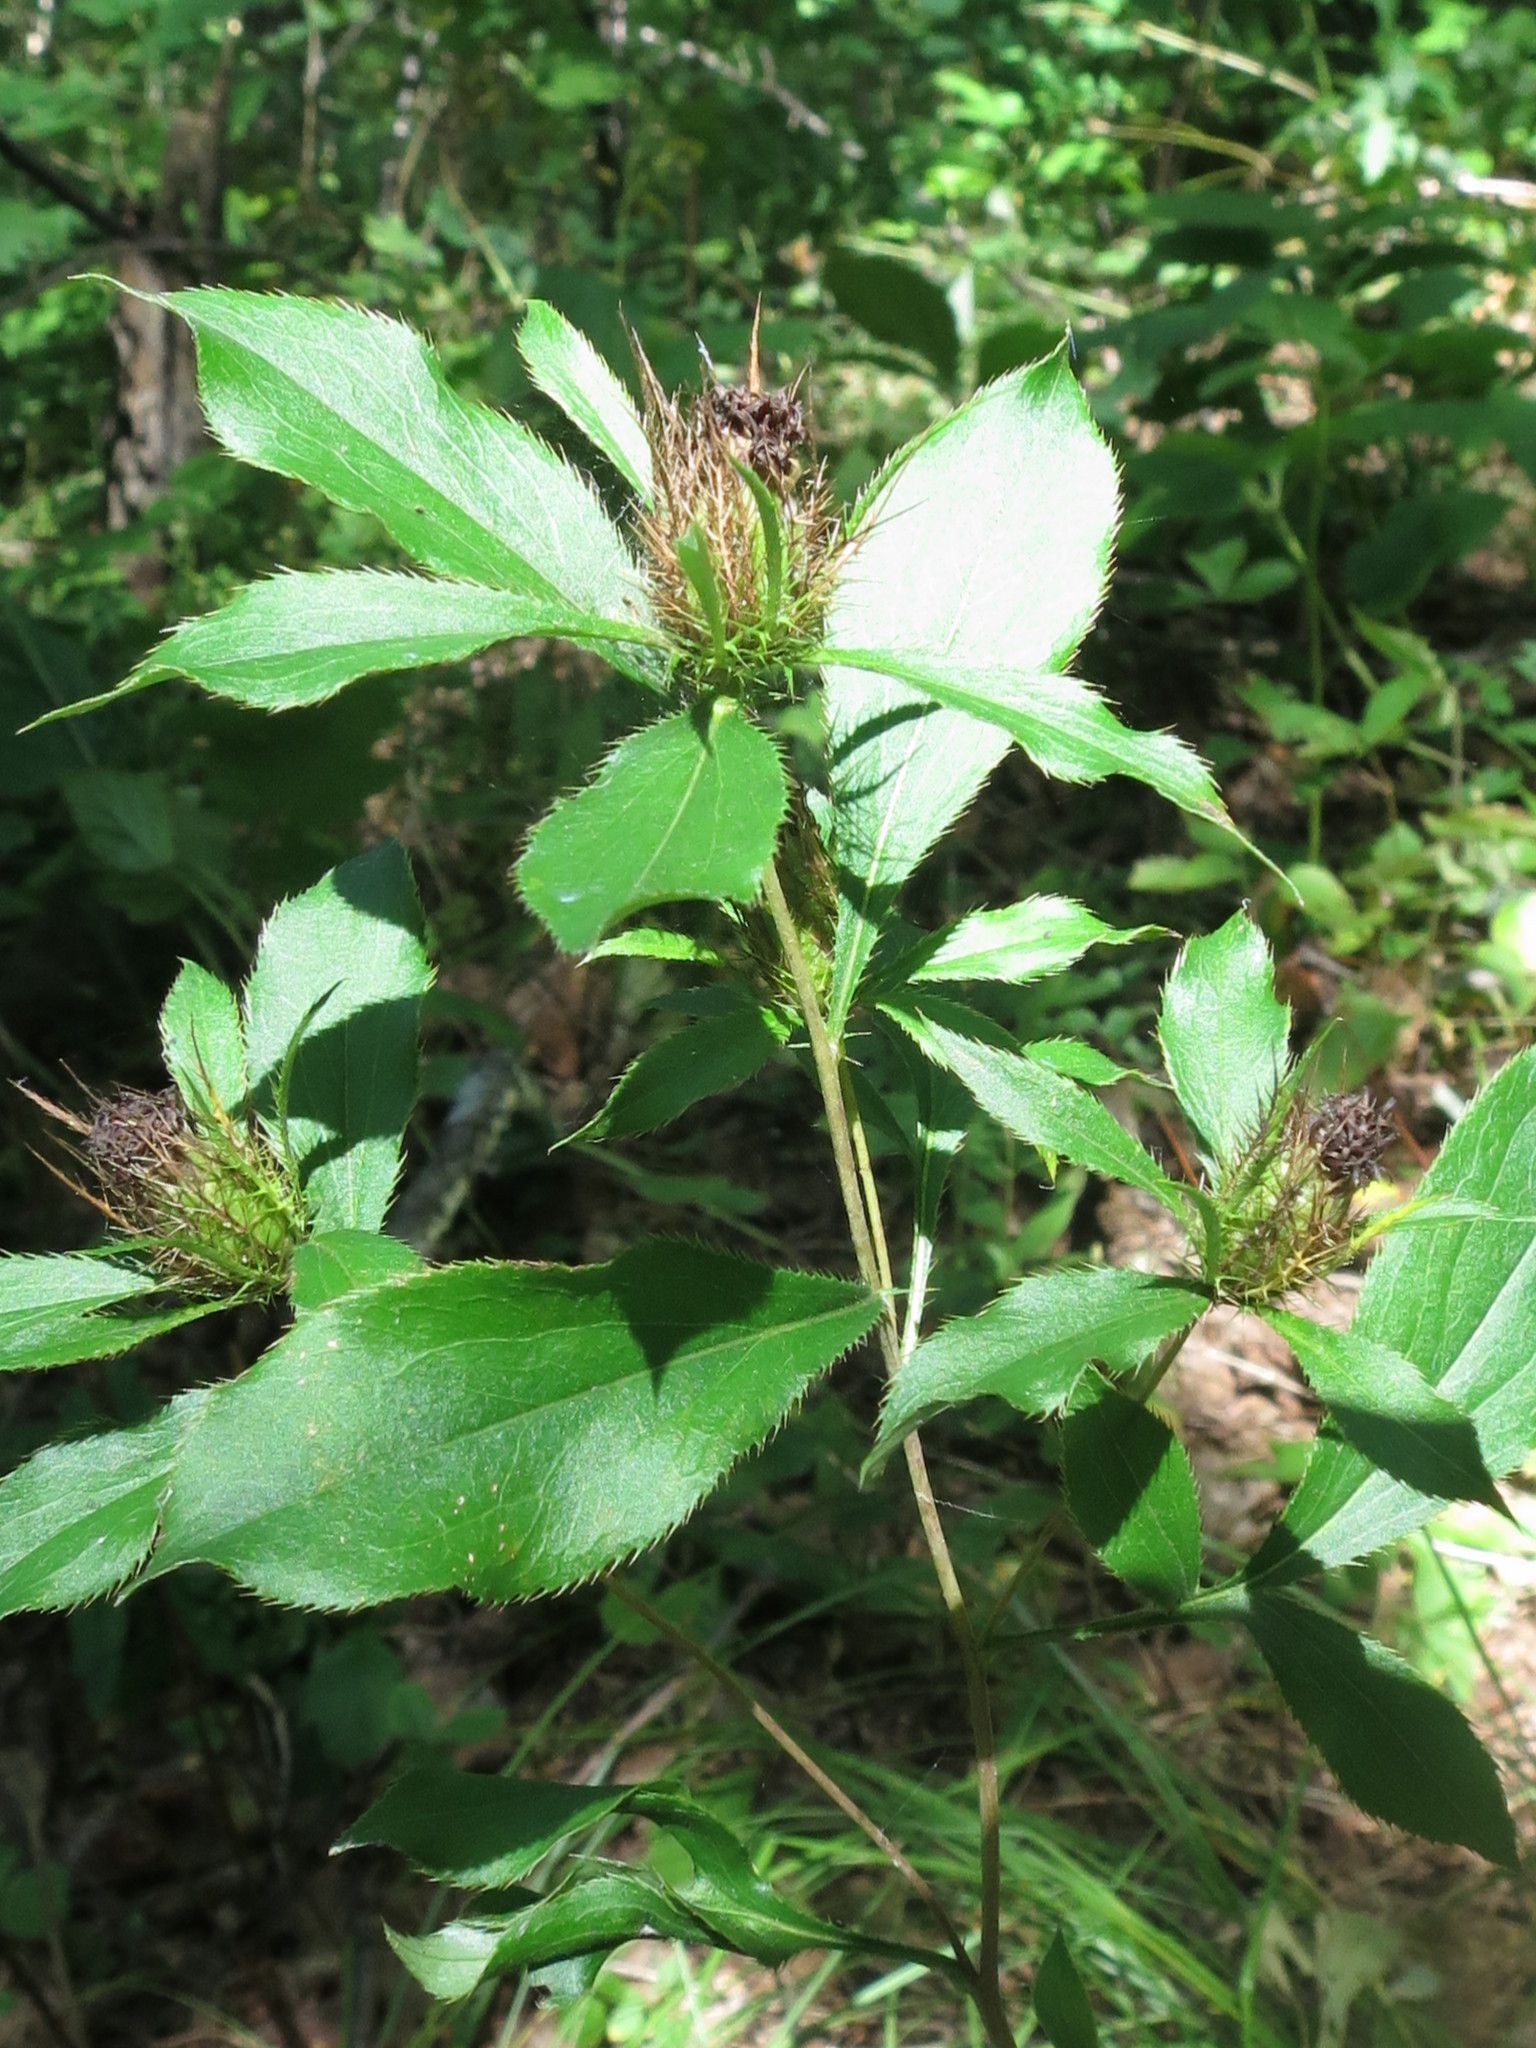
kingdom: Plantae
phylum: Tracheophyta
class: Magnoliopsida
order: Asterales
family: Asteraceae
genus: Atractylodes
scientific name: Atractylodes lancea
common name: Southern tsangshu
